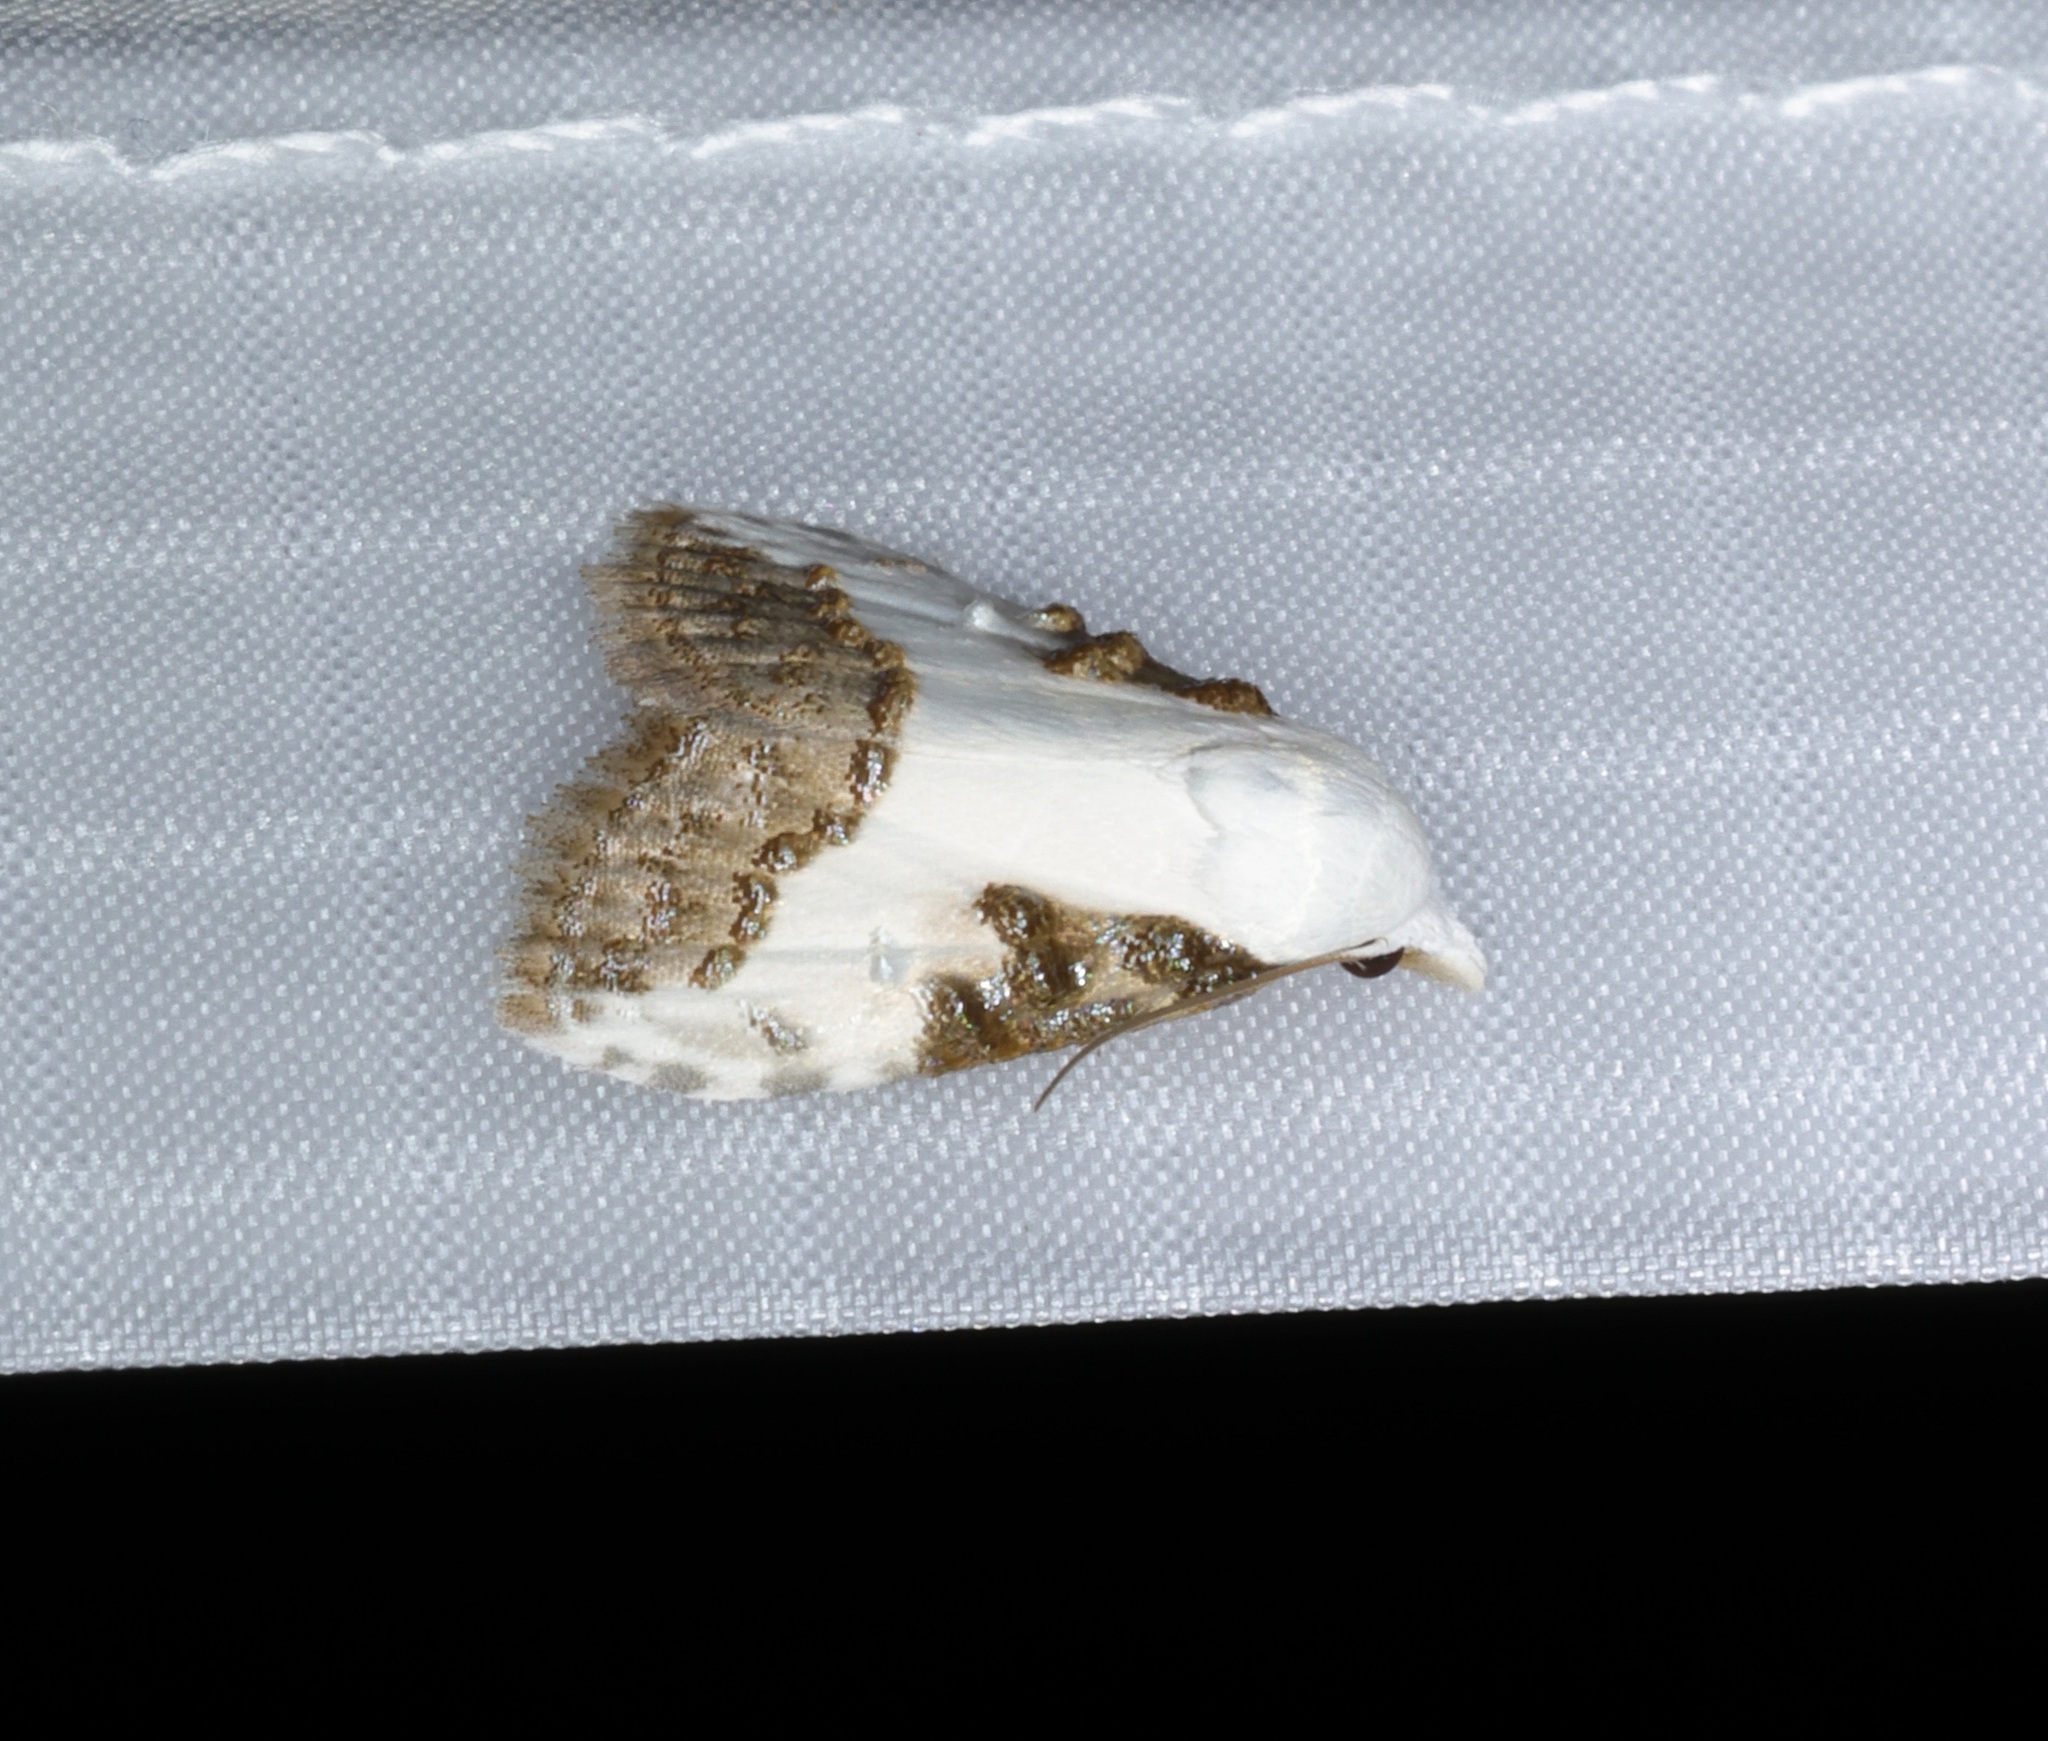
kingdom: Animalia
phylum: Arthropoda
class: Insecta
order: Lepidoptera
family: Nolidae
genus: Aeneanola
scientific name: Aeneanola acontioides
